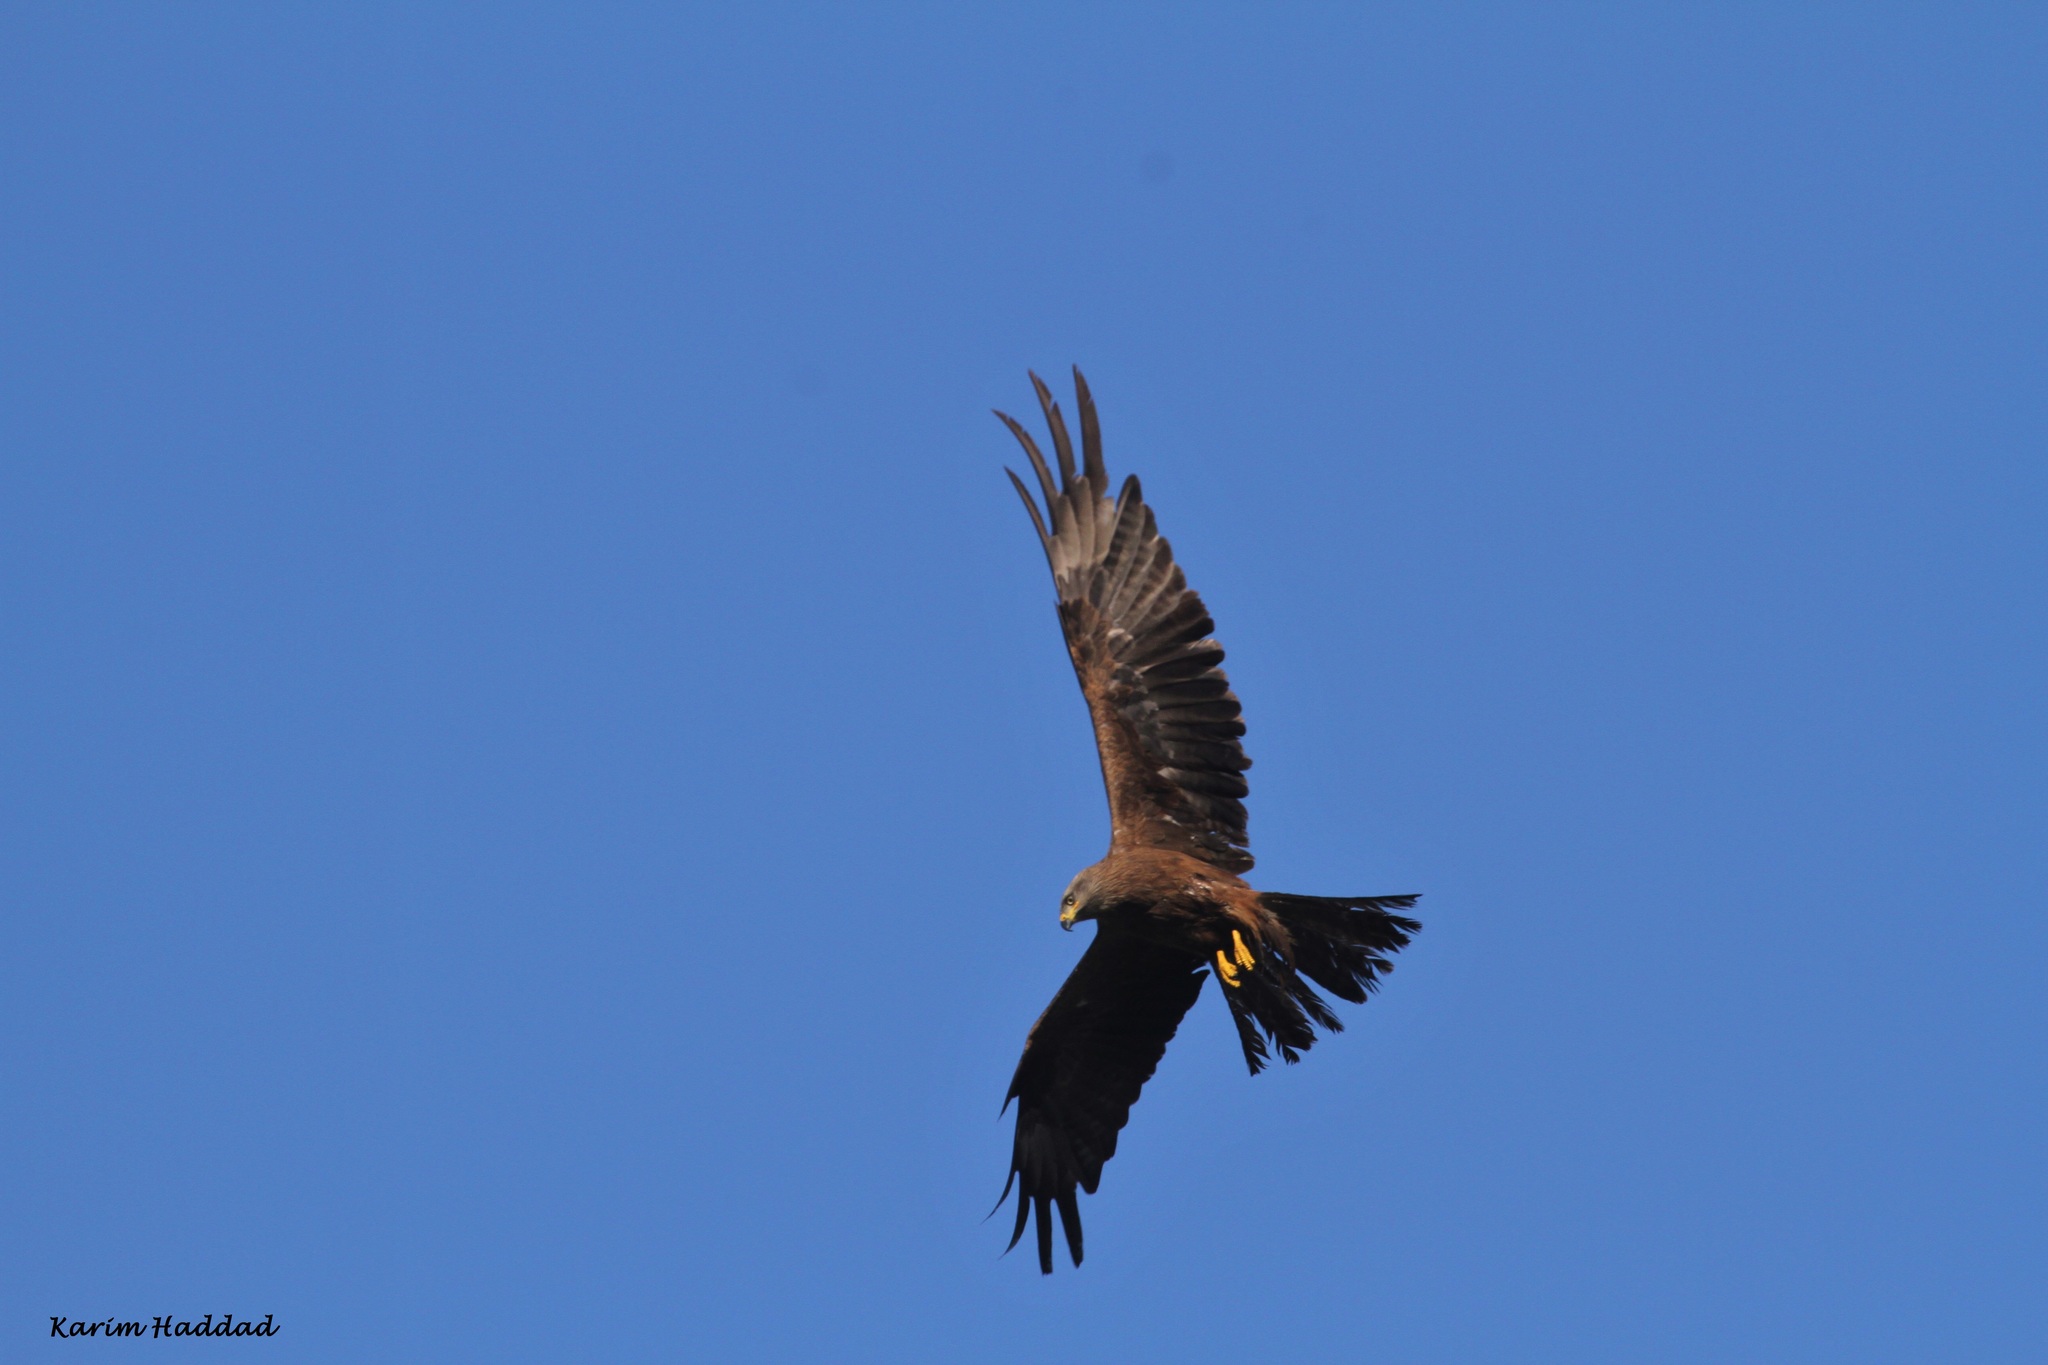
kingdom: Animalia
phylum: Chordata
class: Aves
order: Accipitriformes
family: Accipitridae
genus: Milvus
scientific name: Milvus migrans
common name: Black kite
